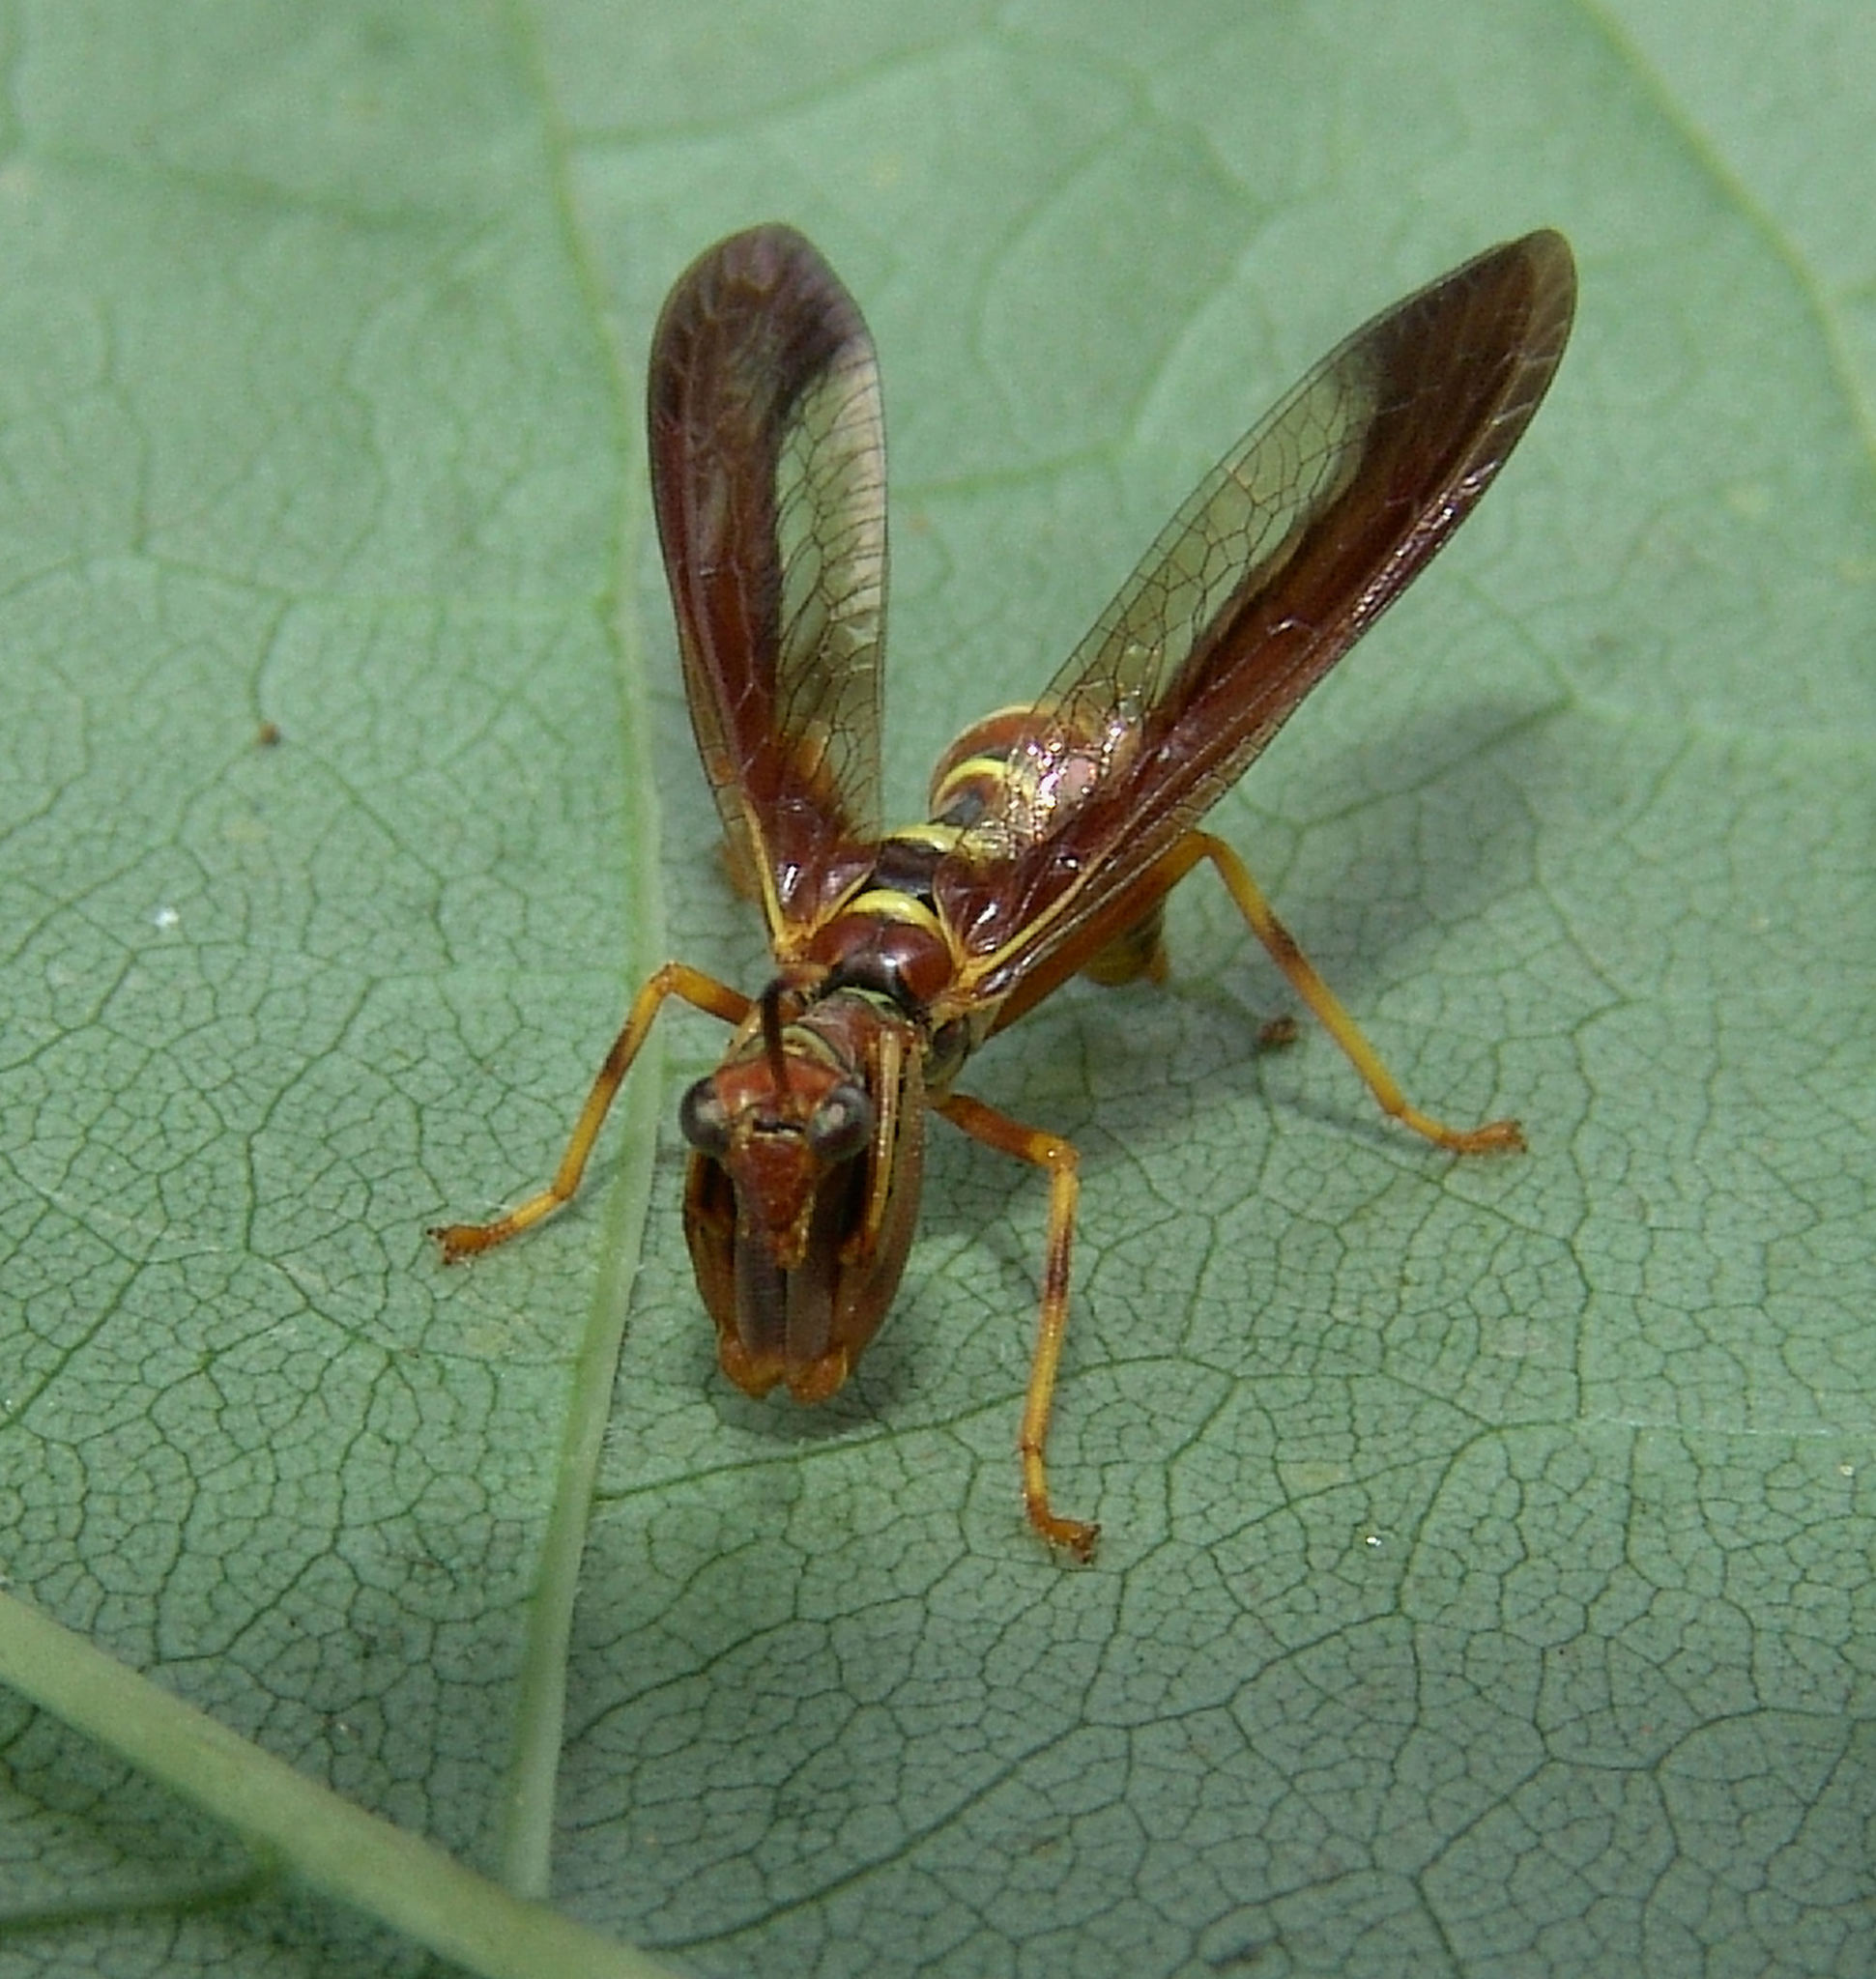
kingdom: Animalia
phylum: Arthropoda
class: Insecta
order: Neuroptera
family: Mantispidae
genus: Climaciella
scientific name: Climaciella brunnea
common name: Brown wasp mantidfly
